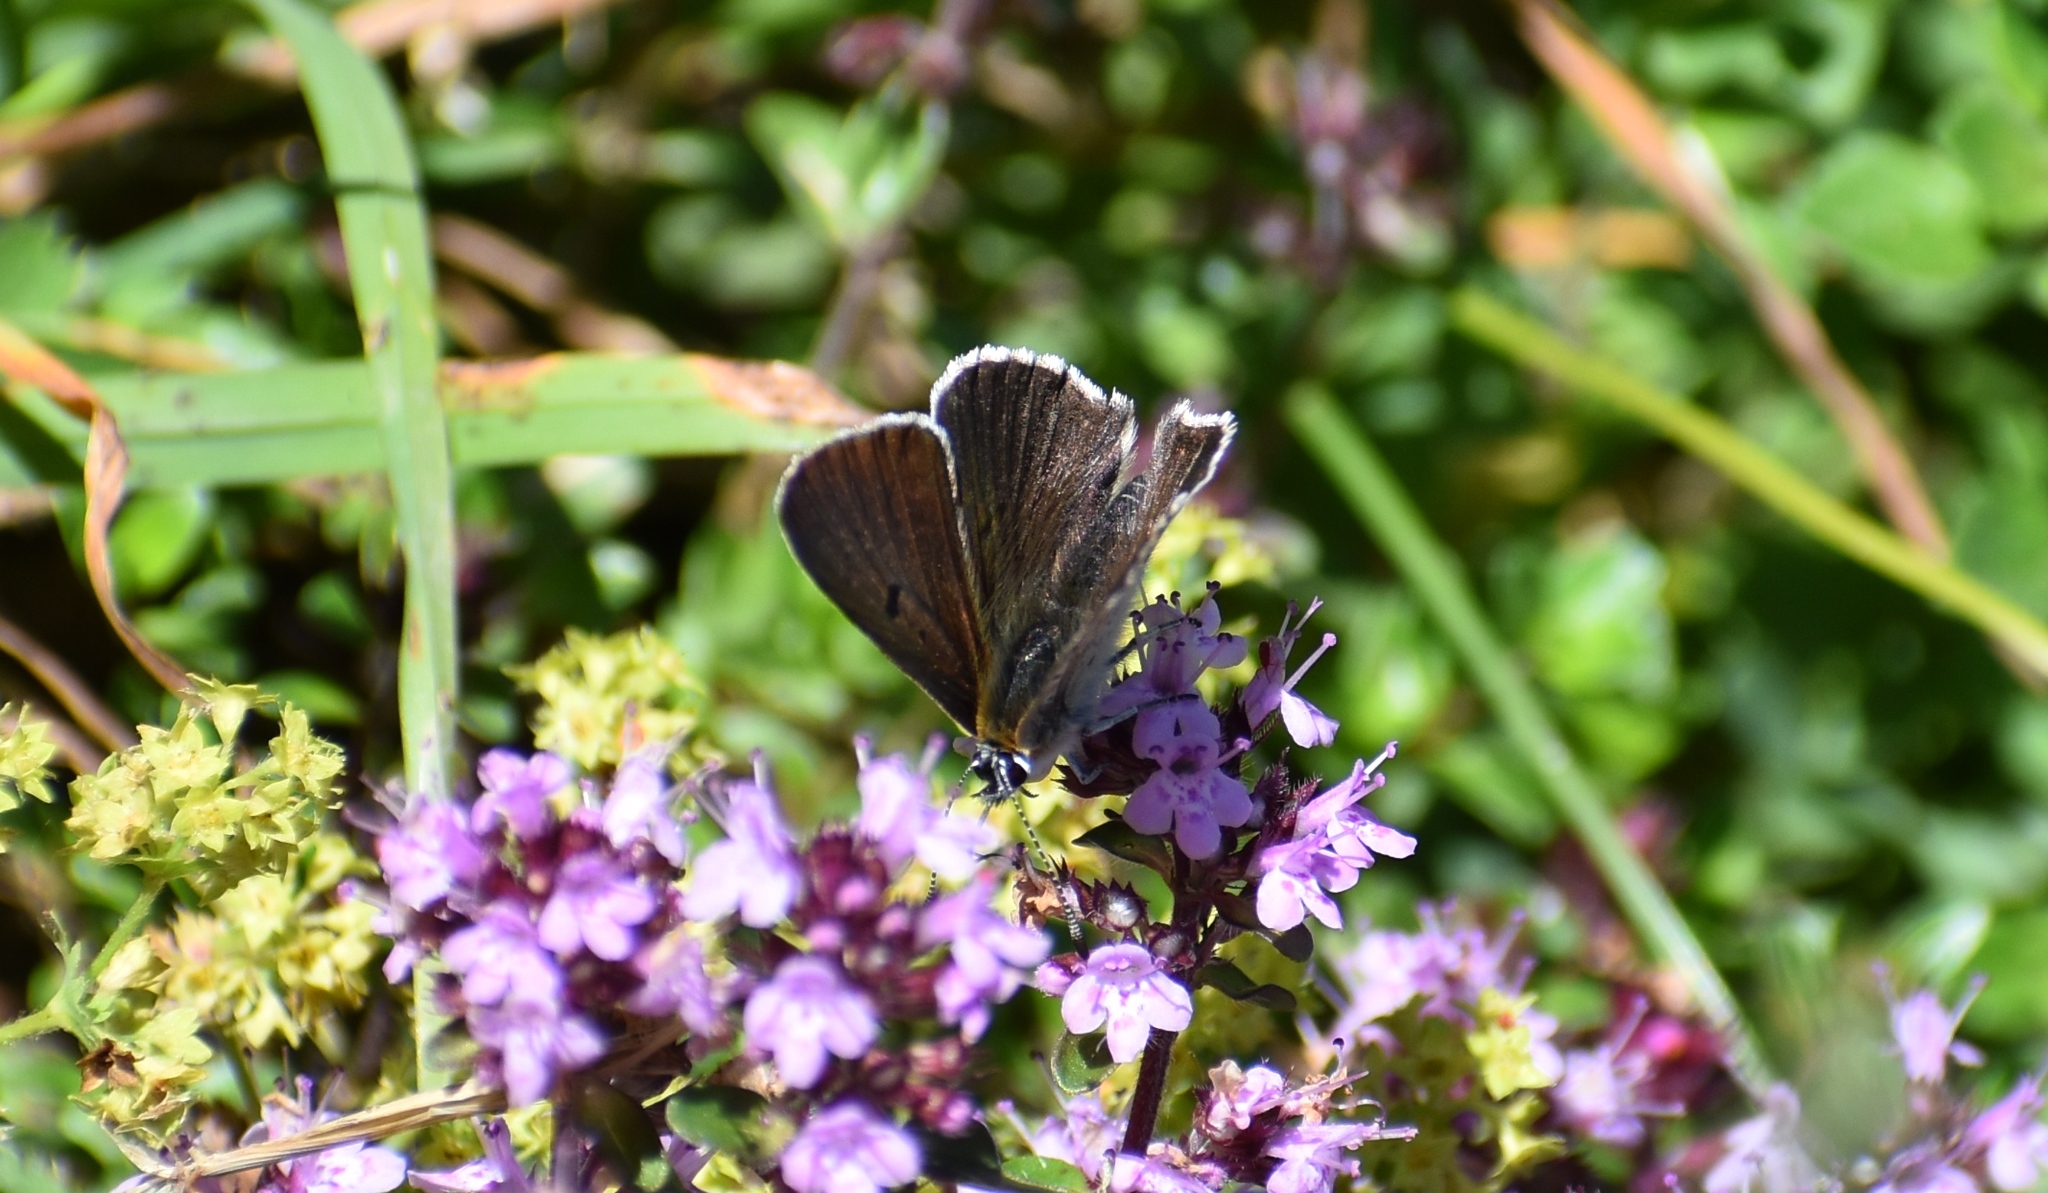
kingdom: Animalia
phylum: Arthropoda
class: Insecta
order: Lepidoptera
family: Lycaenidae
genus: Loweia
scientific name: Loweia tityrus
